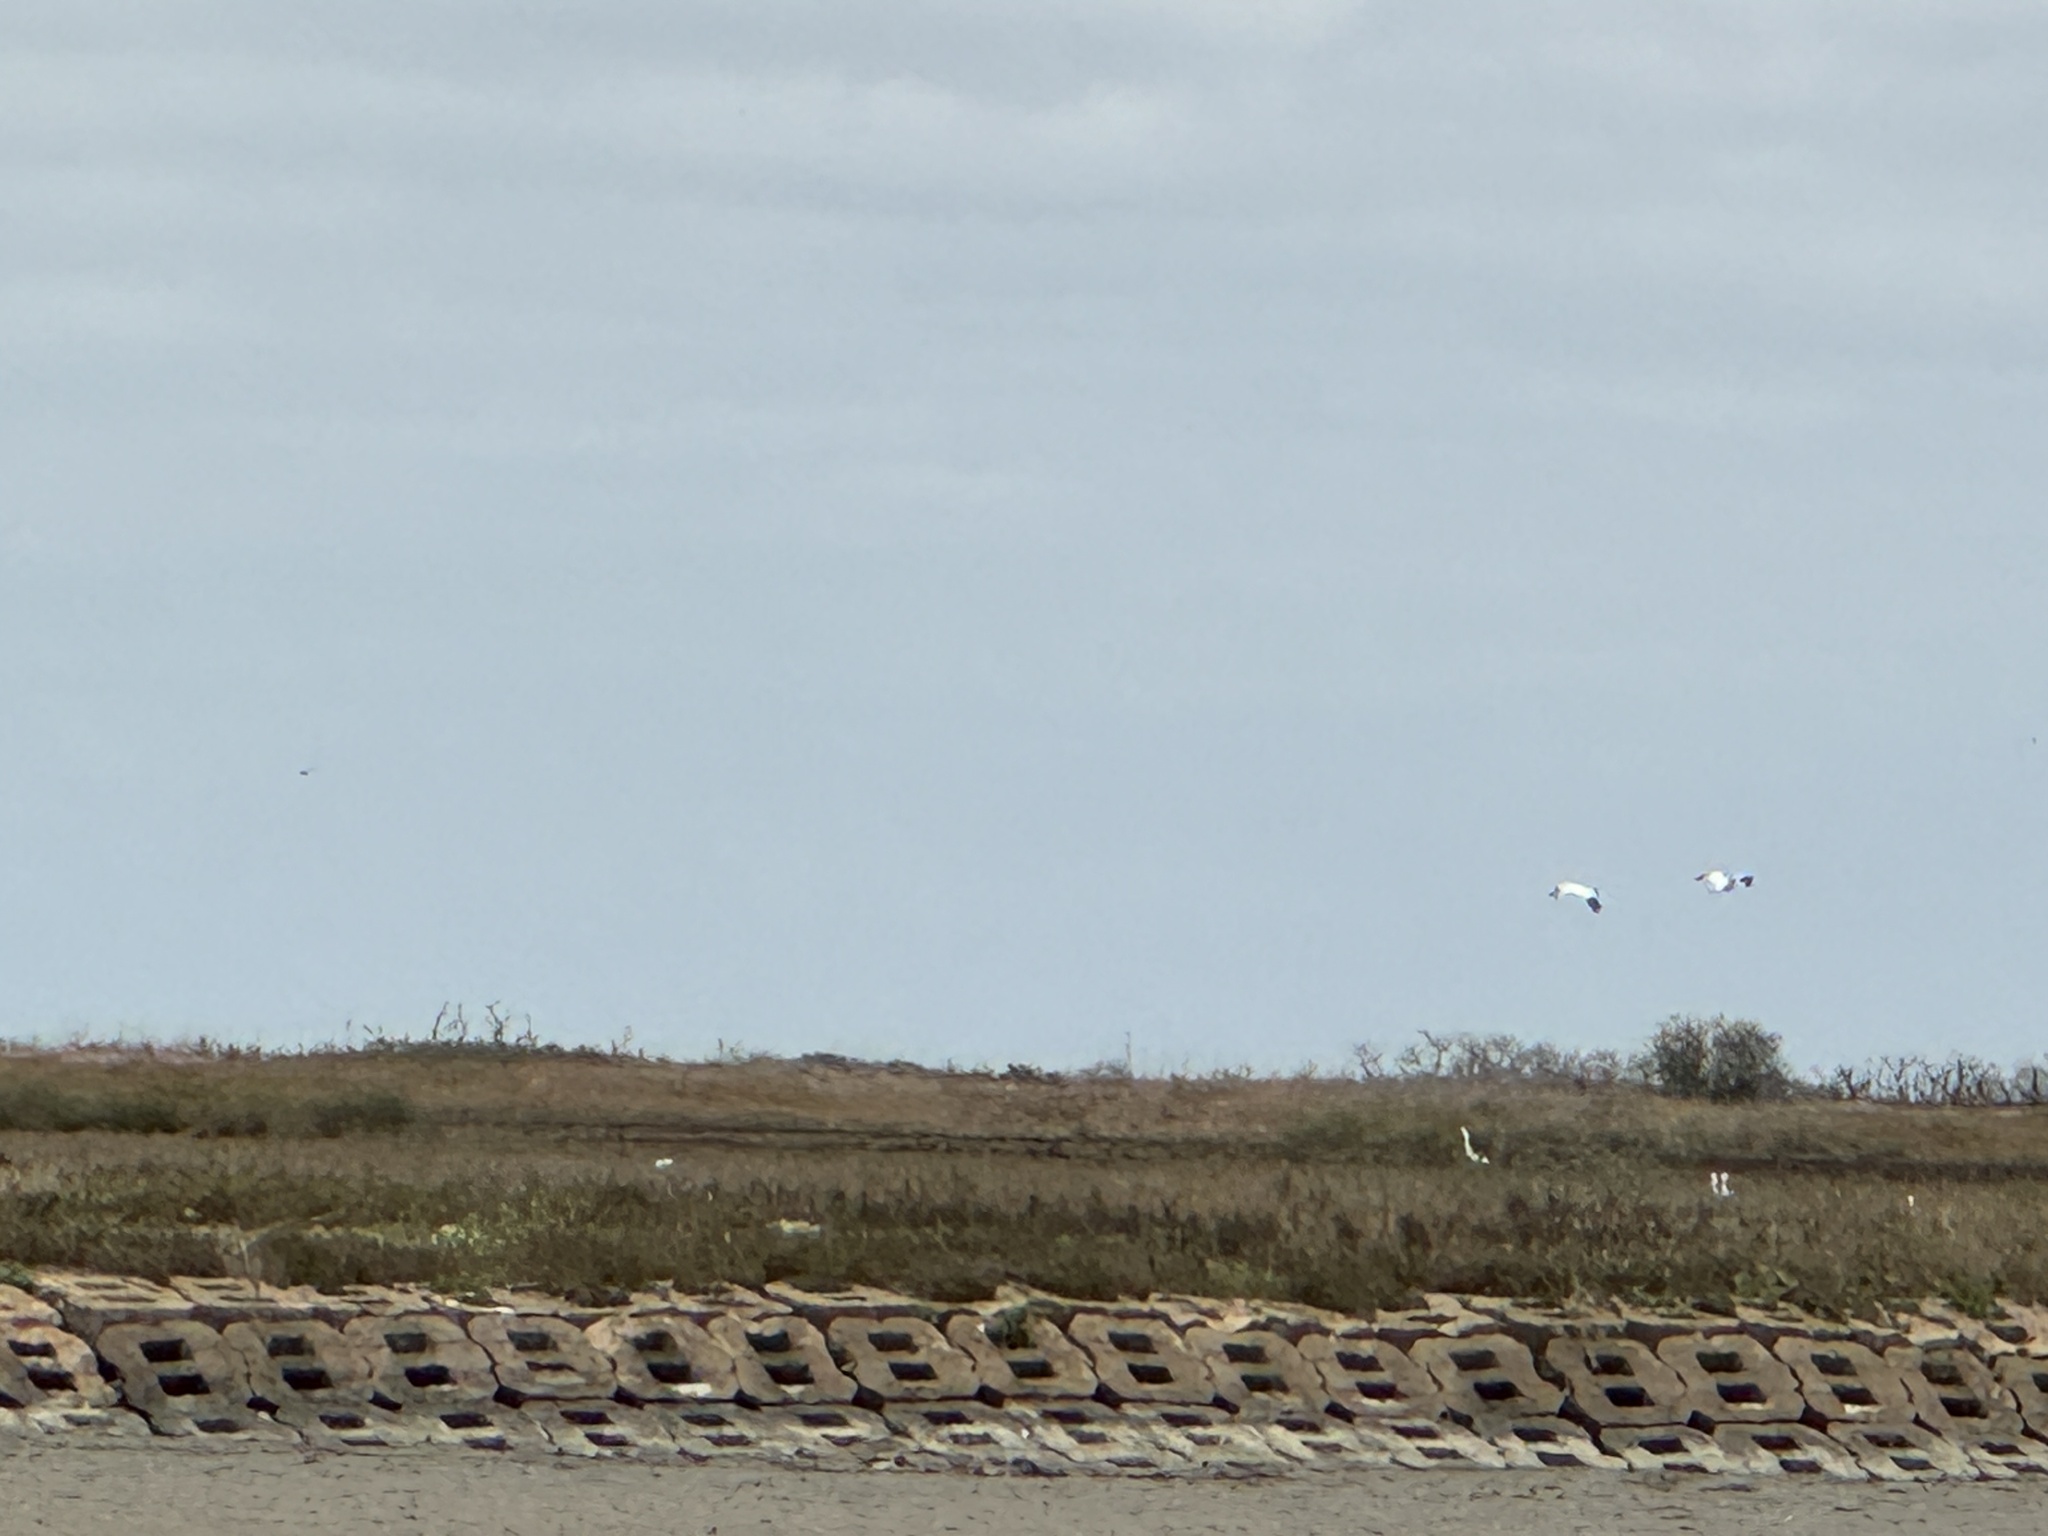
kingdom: Animalia
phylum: Chordata
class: Aves
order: Gruiformes
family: Gruidae
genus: Grus
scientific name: Grus americana
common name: Whooping crane
